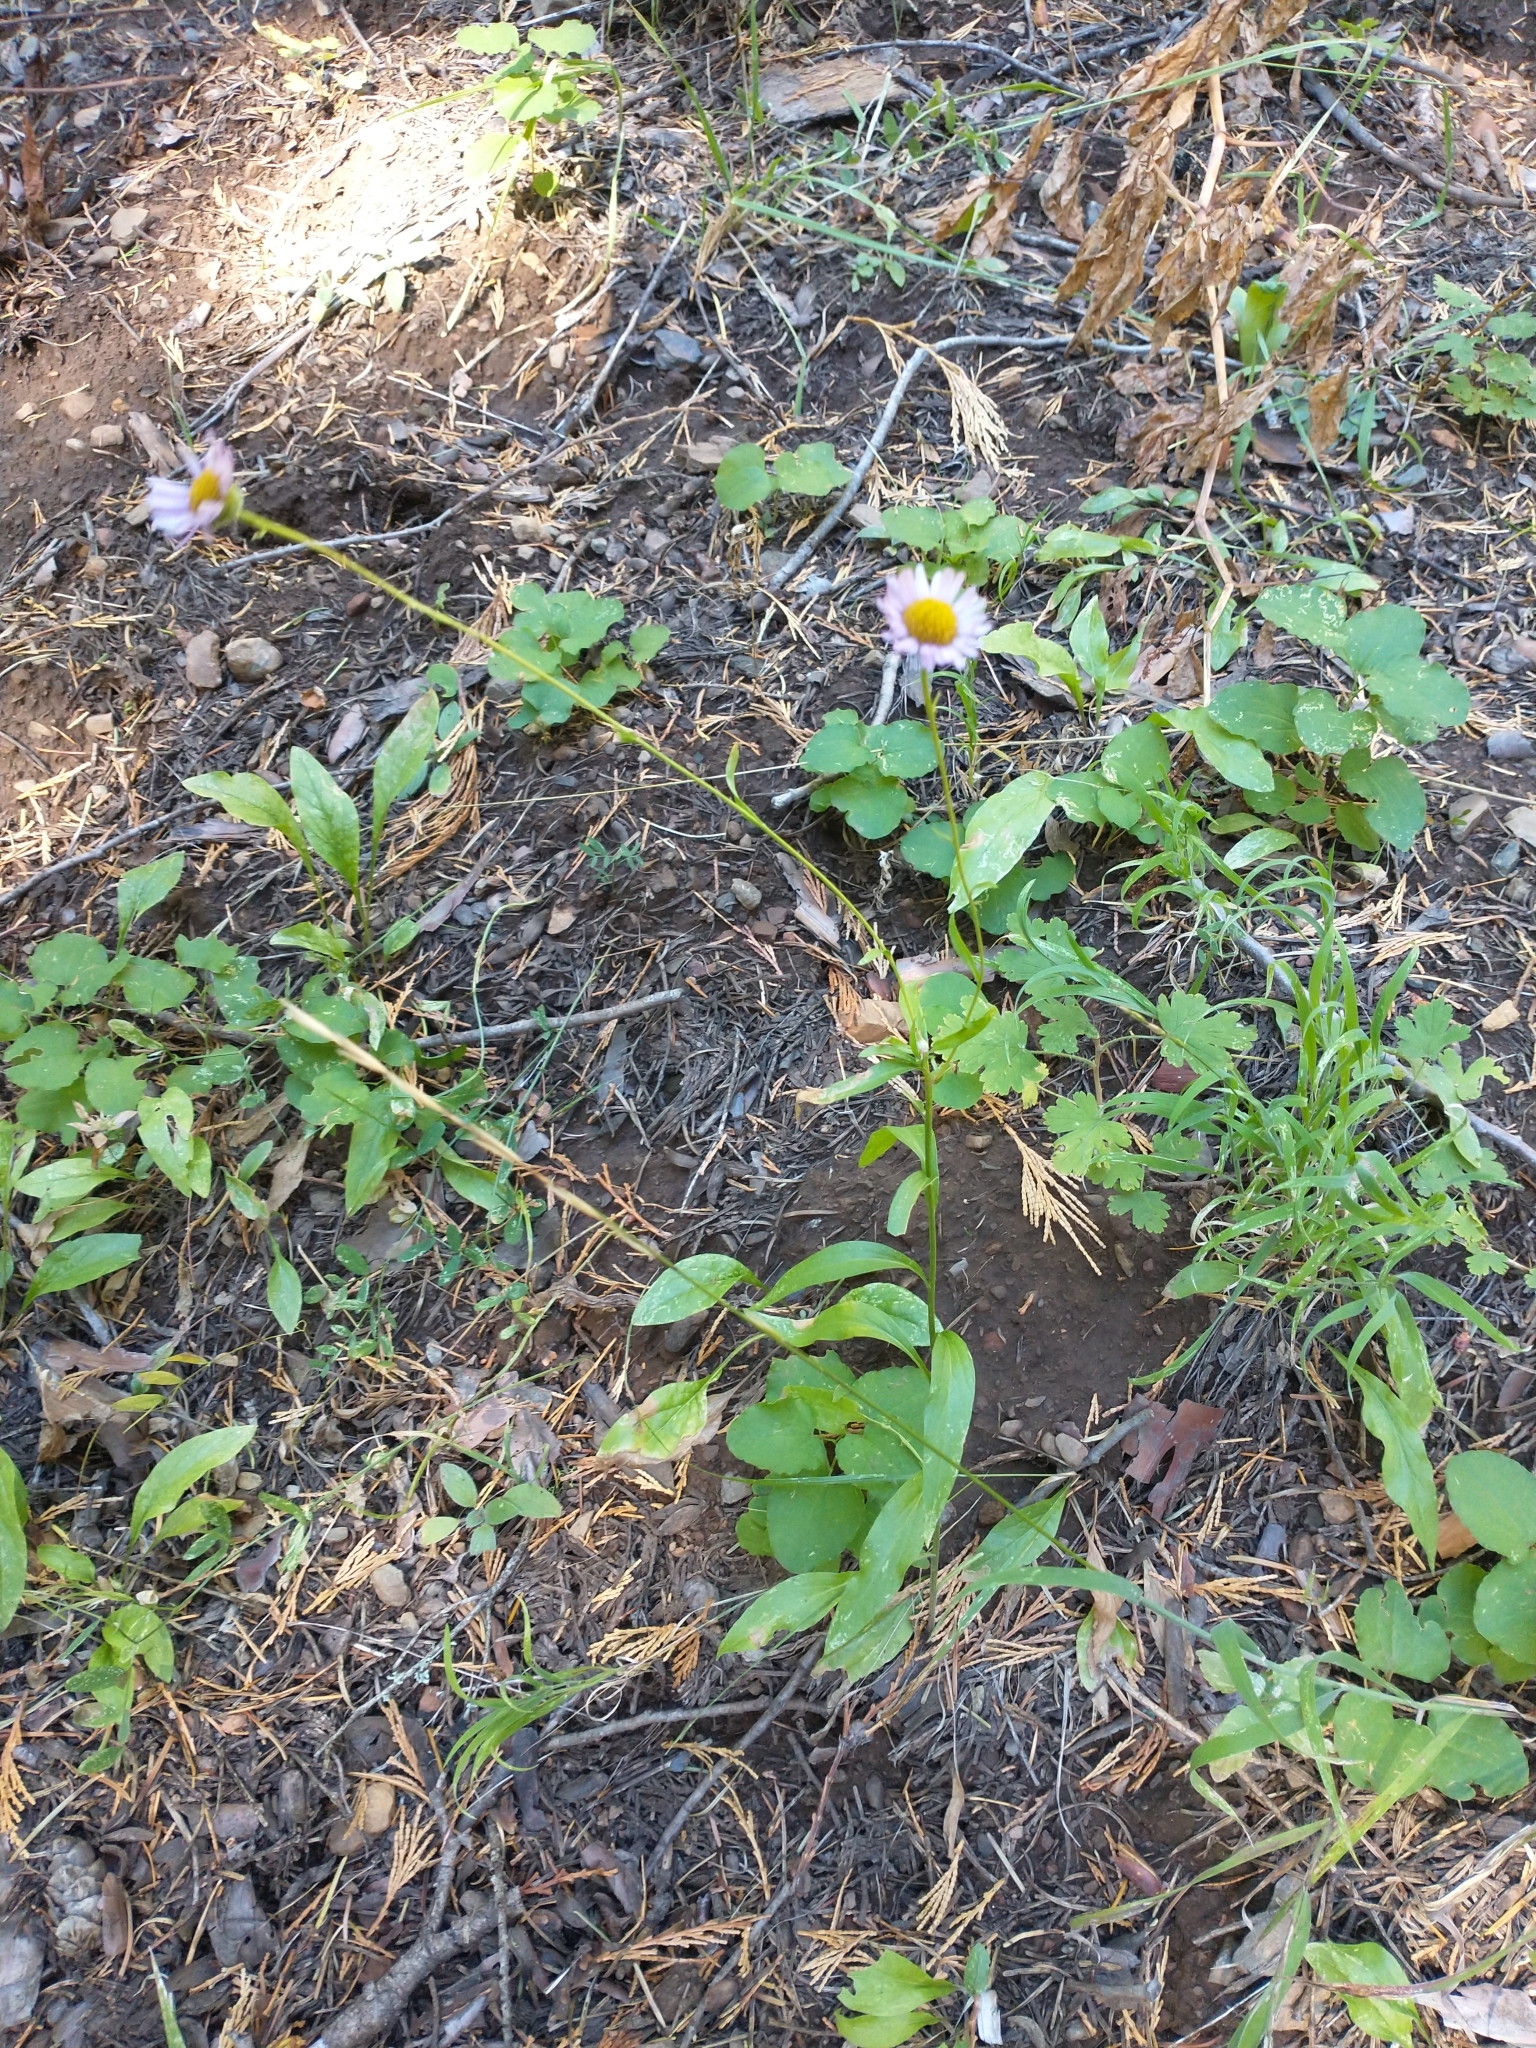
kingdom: Plantae
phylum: Tracheophyta
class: Magnoliopsida
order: Asterales
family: Asteraceae
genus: Erigeron
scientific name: Erigeron aliceae
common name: Alice eastwood's fleabane
